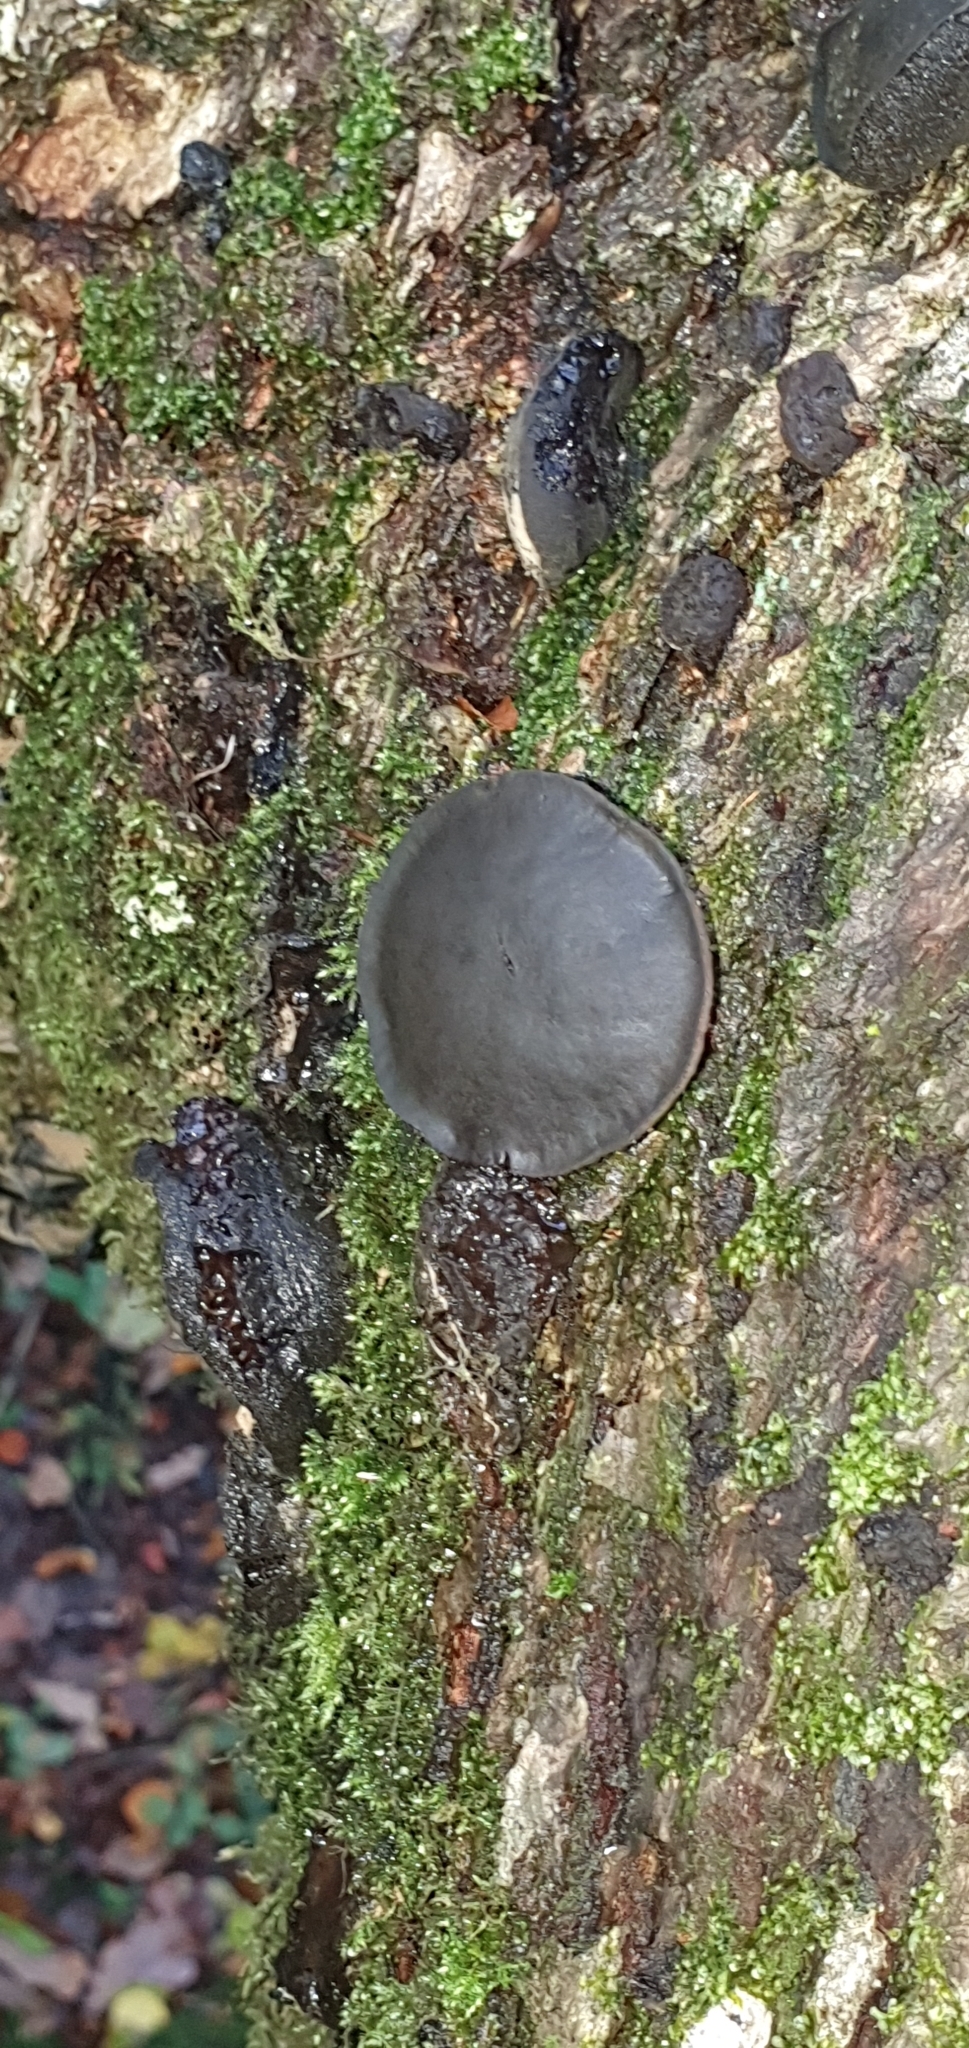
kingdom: Fungi
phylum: Ascomycota
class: Leotiomycetes
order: Phacidiales
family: Phacidiaceae
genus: Bulgaria
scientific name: Bulgaria inquinans
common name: Black bulgar
